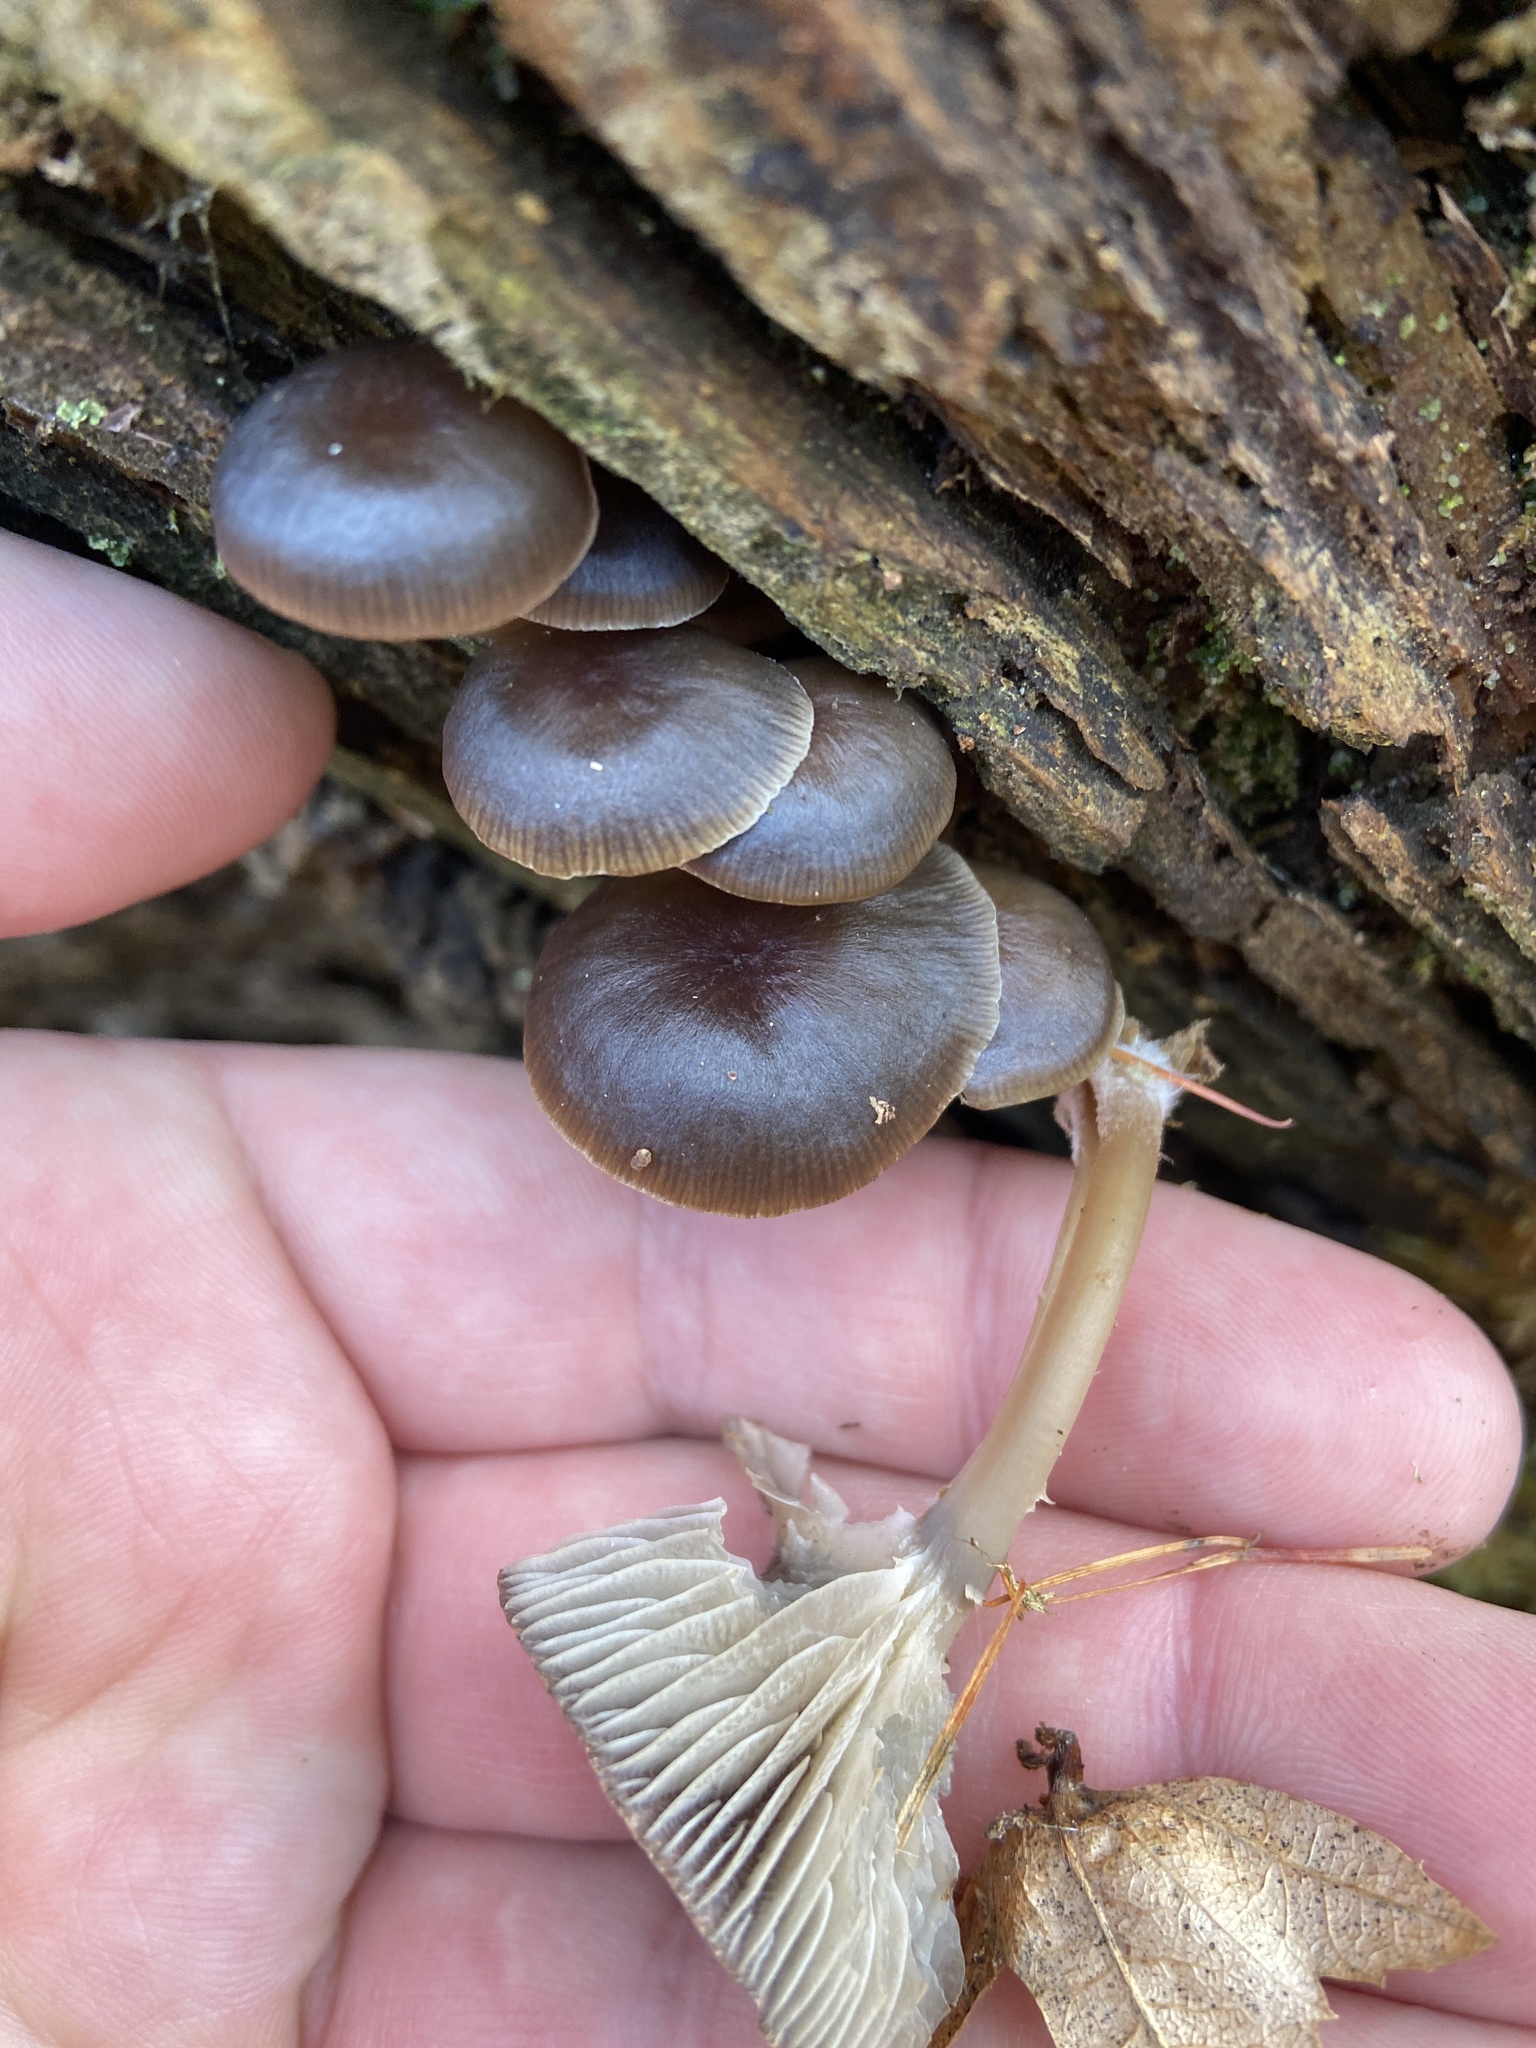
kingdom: Fungi
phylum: Basidiomycota
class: Agaricomycetes
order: Agaricales
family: Mycenaceae
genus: Mycena
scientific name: Mycena tintinnabulum
